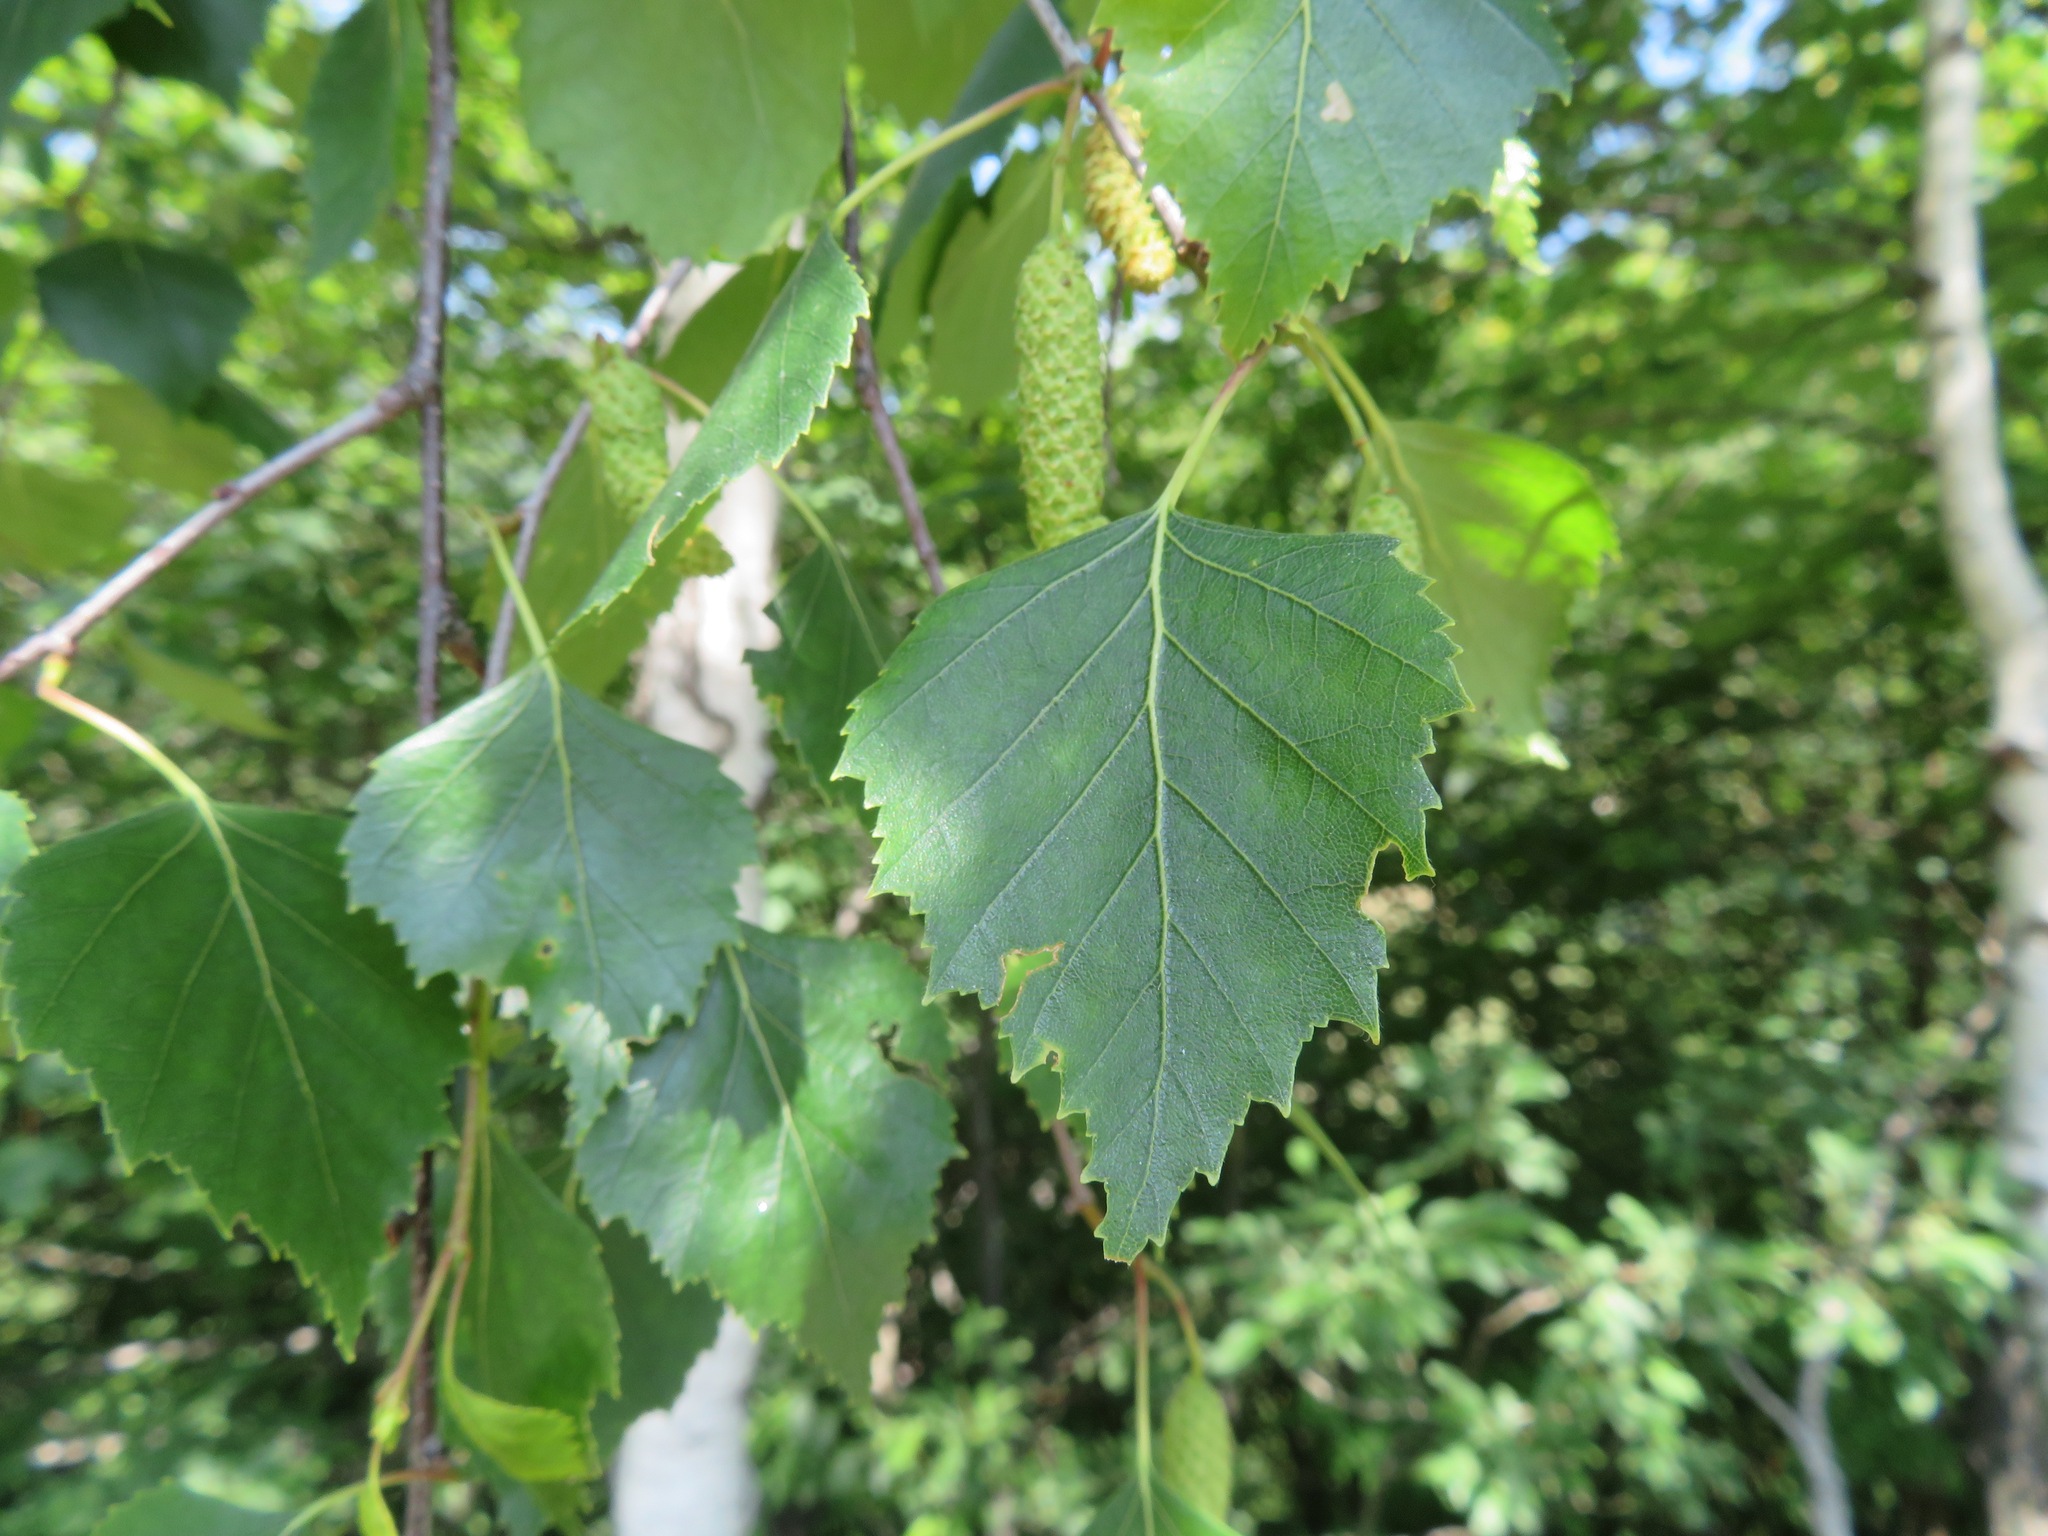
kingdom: Plantae
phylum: Tracheophyta
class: Magnoliopsida
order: Fagales
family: Betulaceae
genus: Betula
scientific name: Betula pendula
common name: Silver birch
